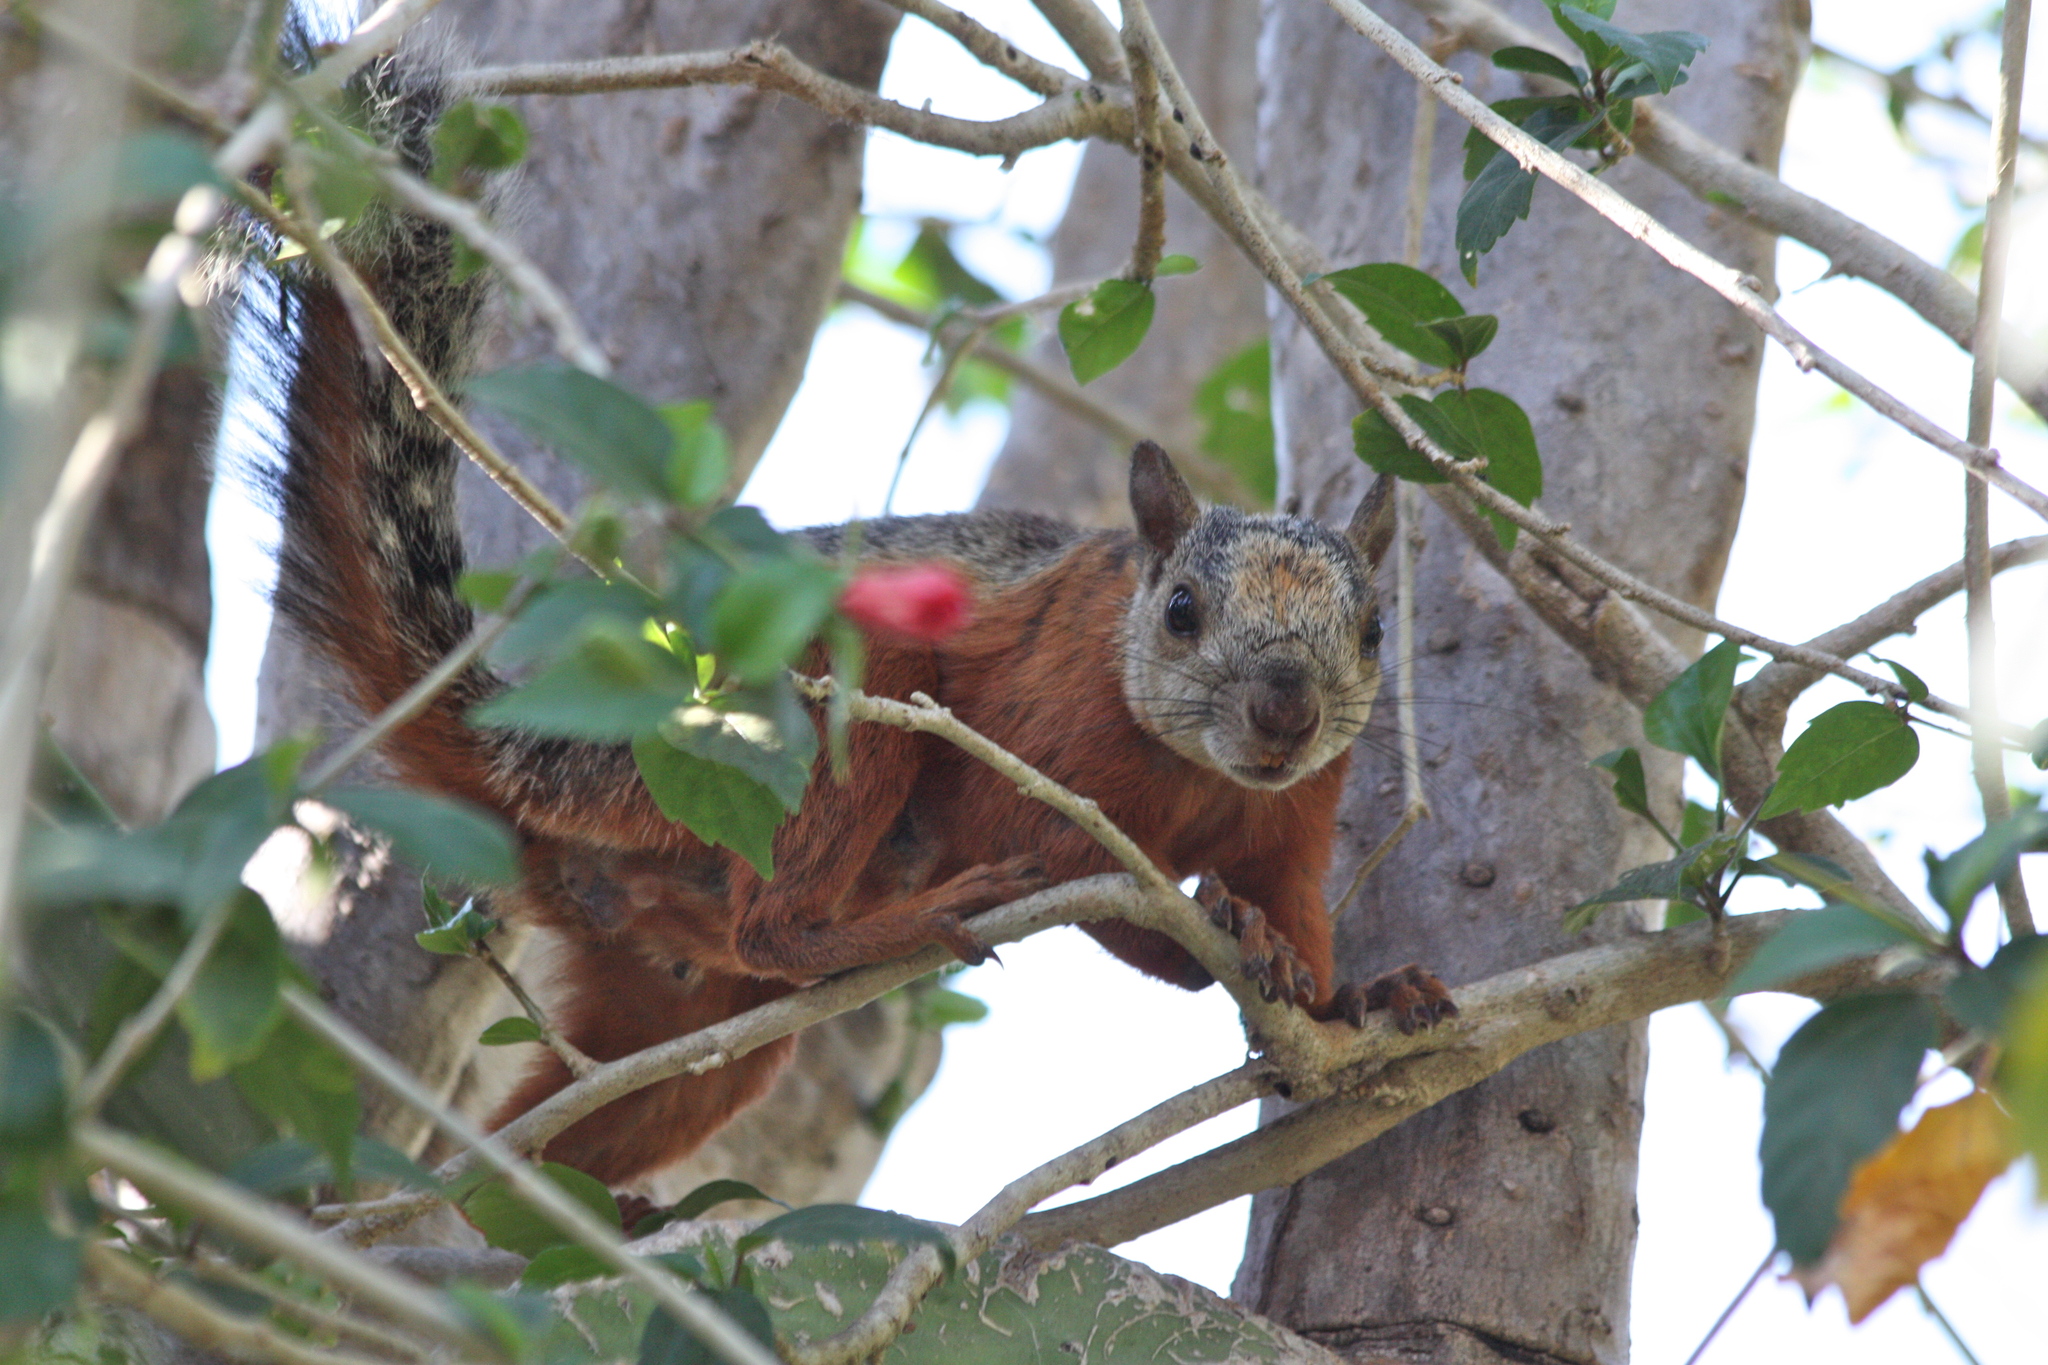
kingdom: Animalia
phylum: Chordata
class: Mammalia
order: Rodentia
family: Sciuridae
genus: Sciurus
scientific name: Sciurus variegatoides
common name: Variegated squirrel
